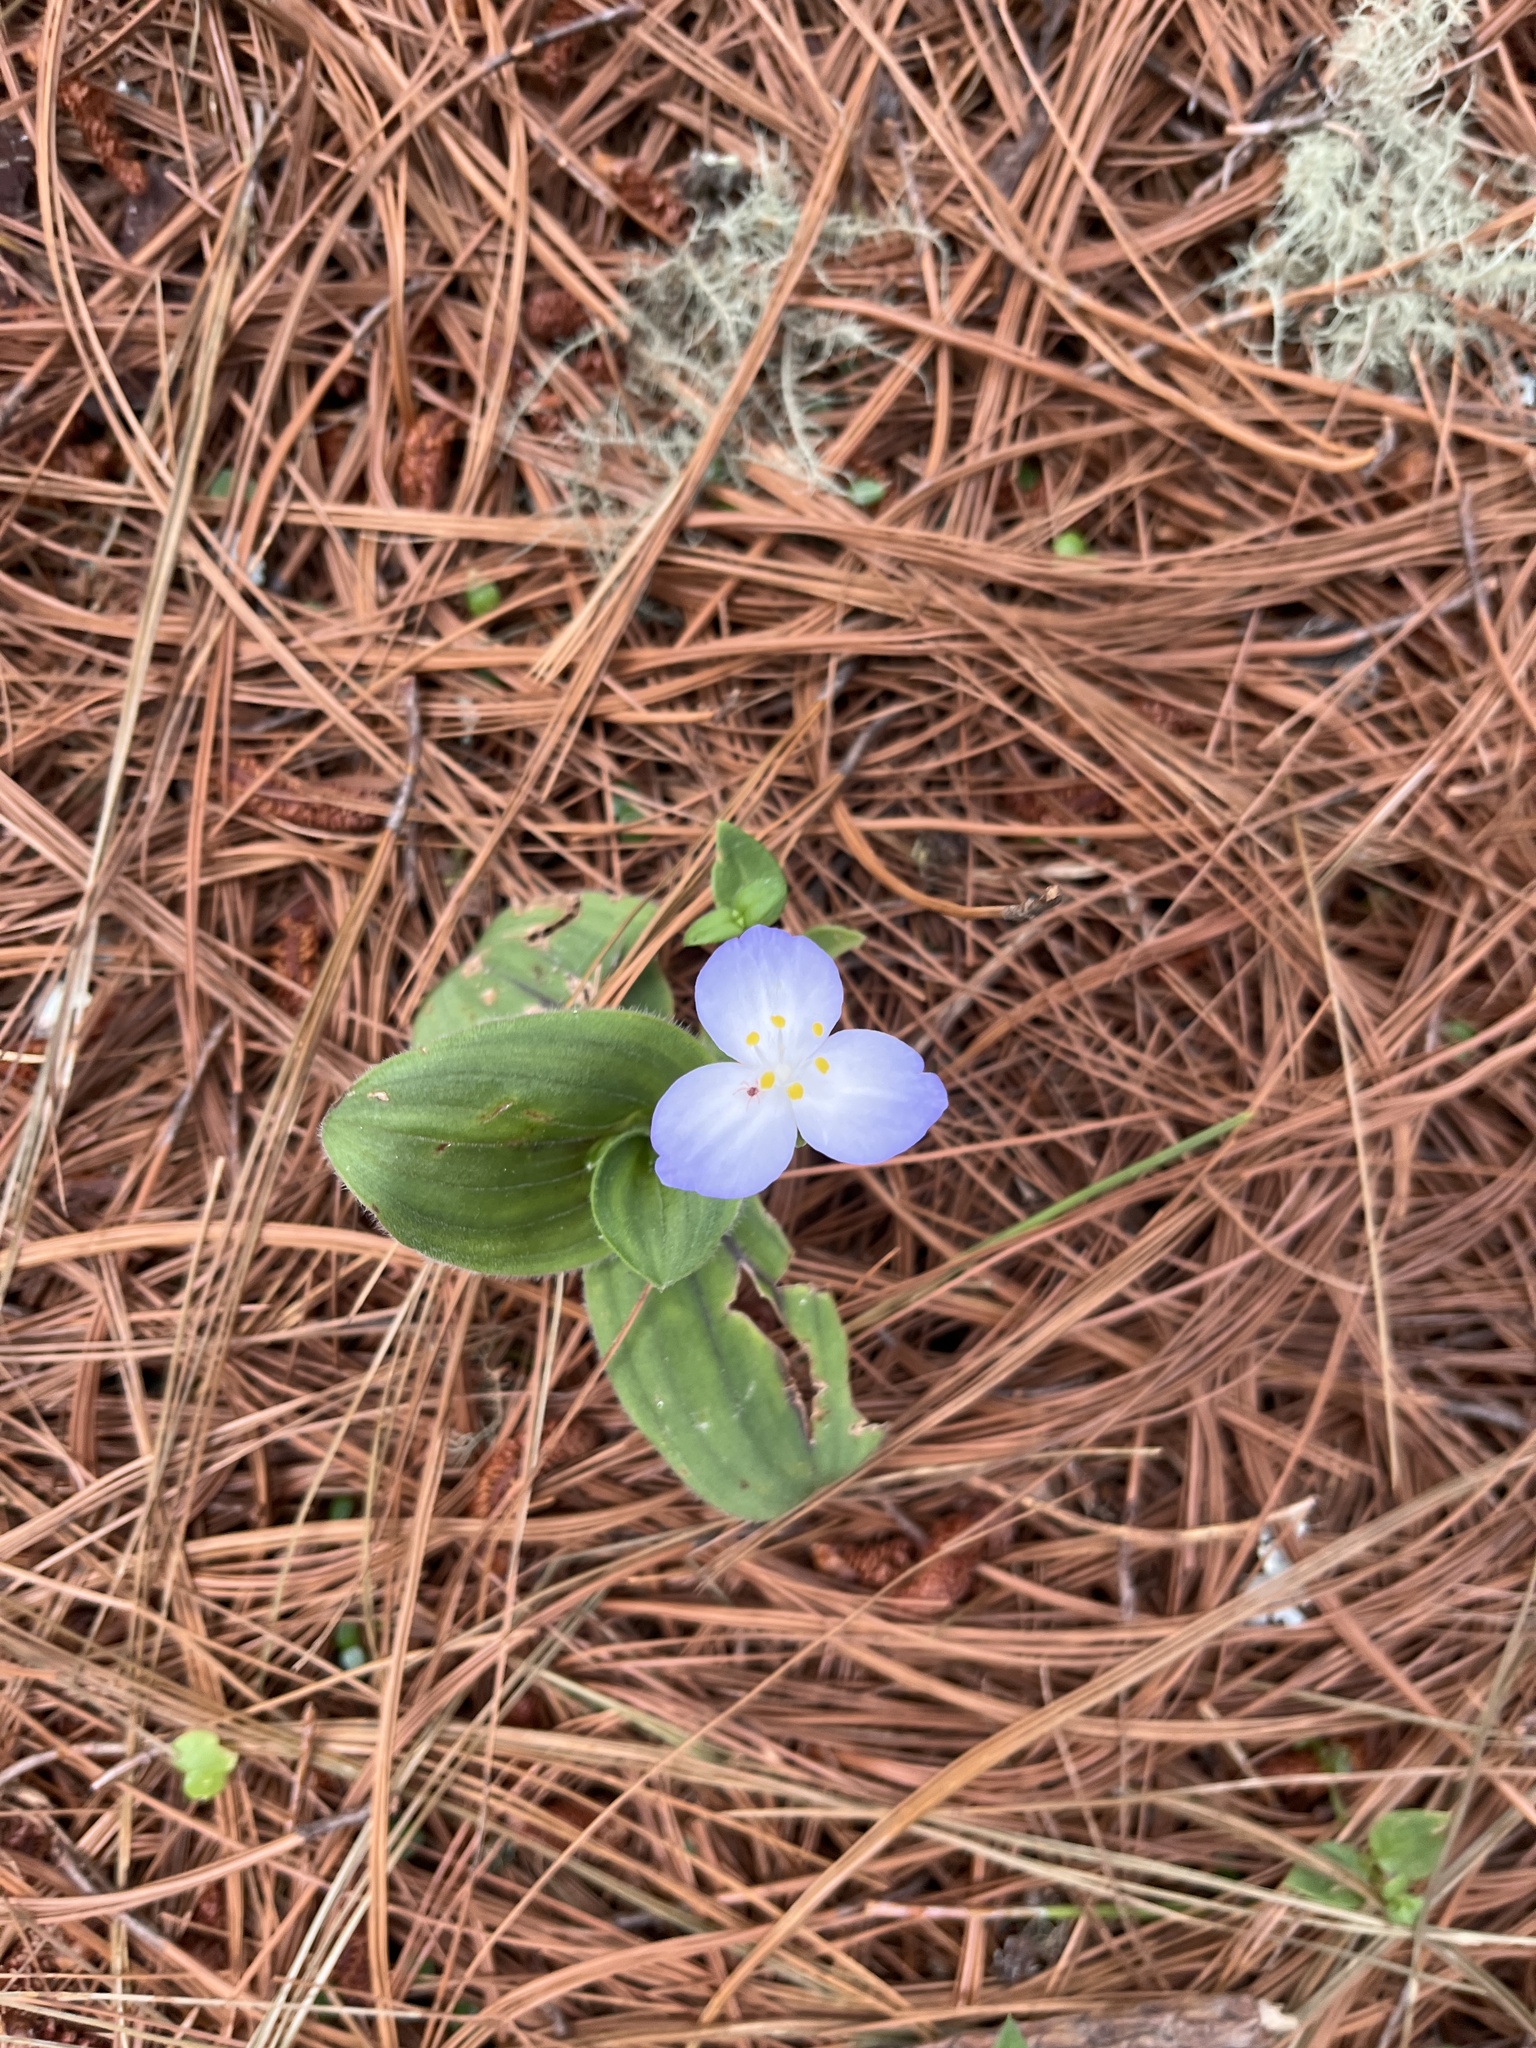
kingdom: Plantae
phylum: Tracheophyta
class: Liliopsida
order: Commelinales
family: Commelinaceae
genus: Matudanthus
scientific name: Matudanthus nanus
